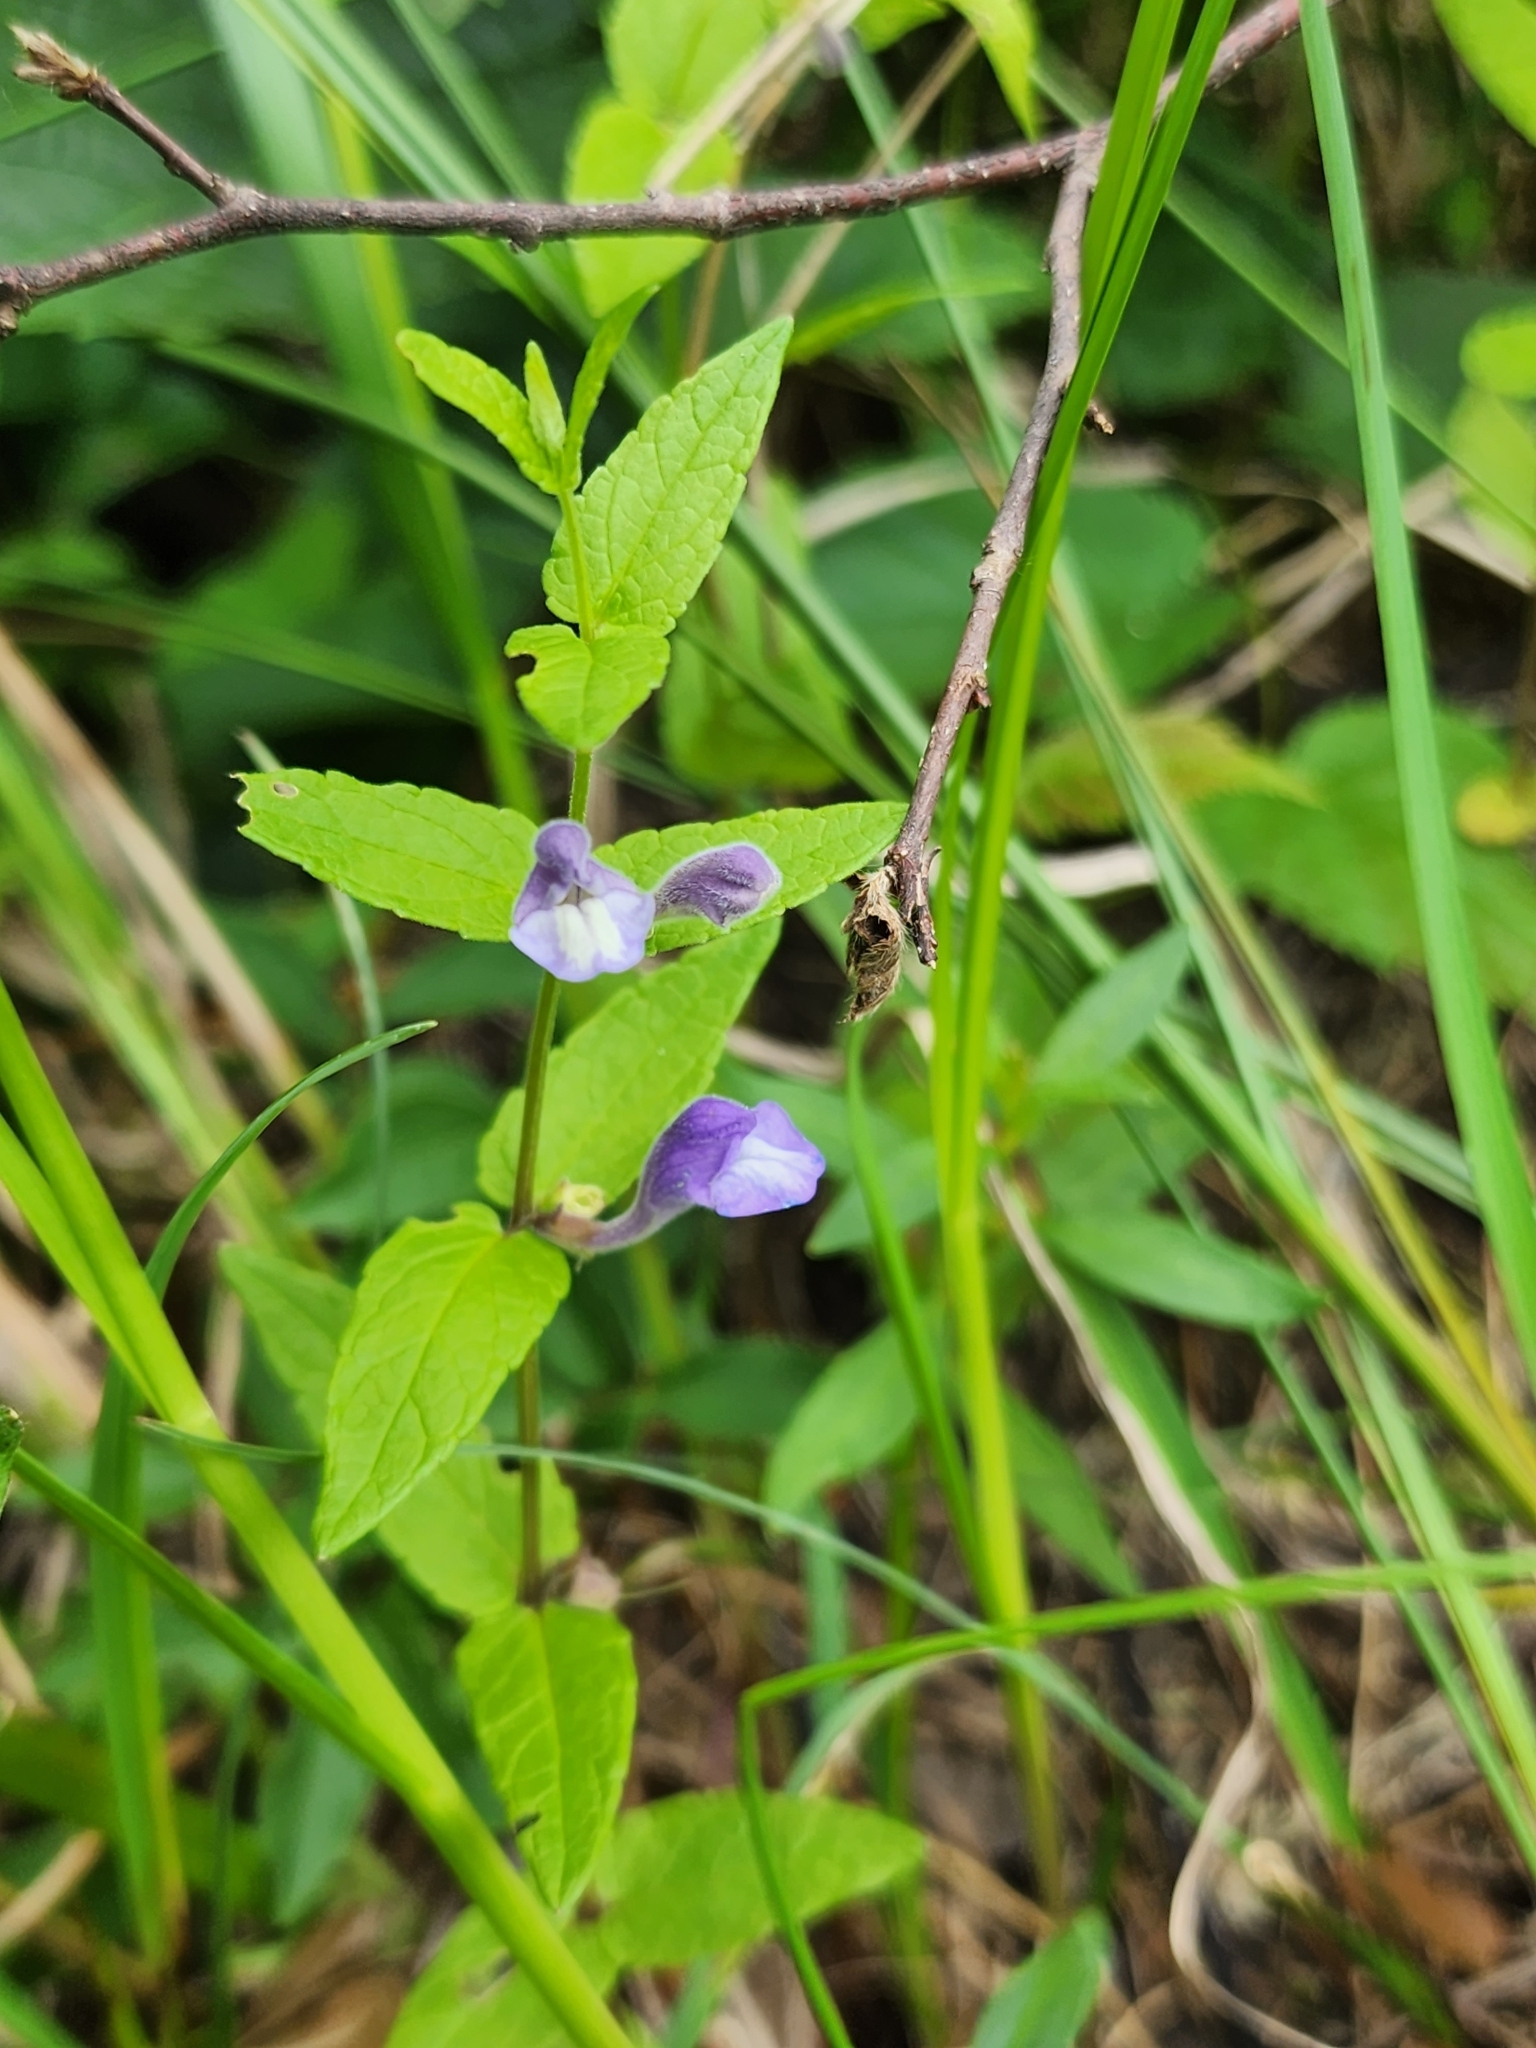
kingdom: Plantae
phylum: Tracheophyta
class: Magnoliopsida
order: Lamiales
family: Lamiaceae
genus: Scutellaria
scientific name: Scutellaria galericulata
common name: Skullcap
